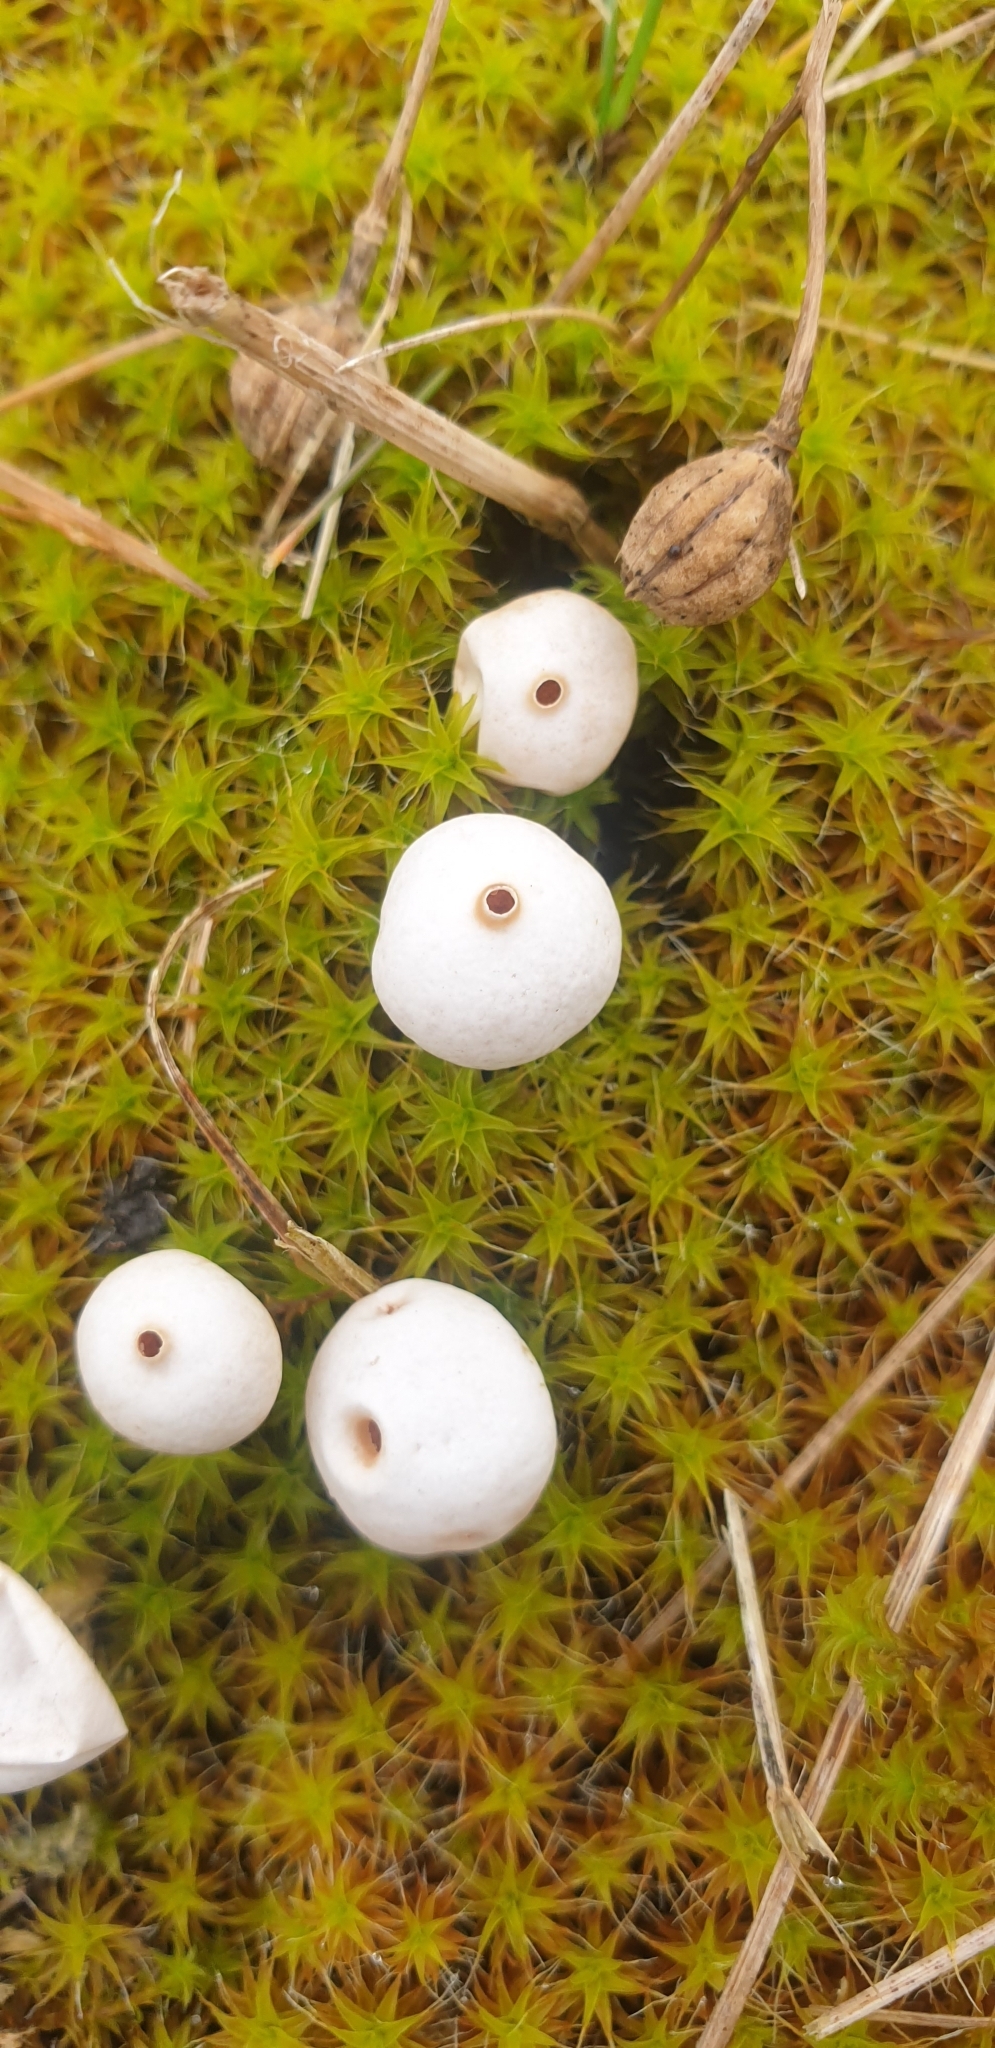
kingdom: Fungi
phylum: Basidiomycota
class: Agaricomycetes
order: Agaricales
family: Agaricaceae
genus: Tulostoma
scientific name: Tulostoma brumale
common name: Winter stalk puffball
